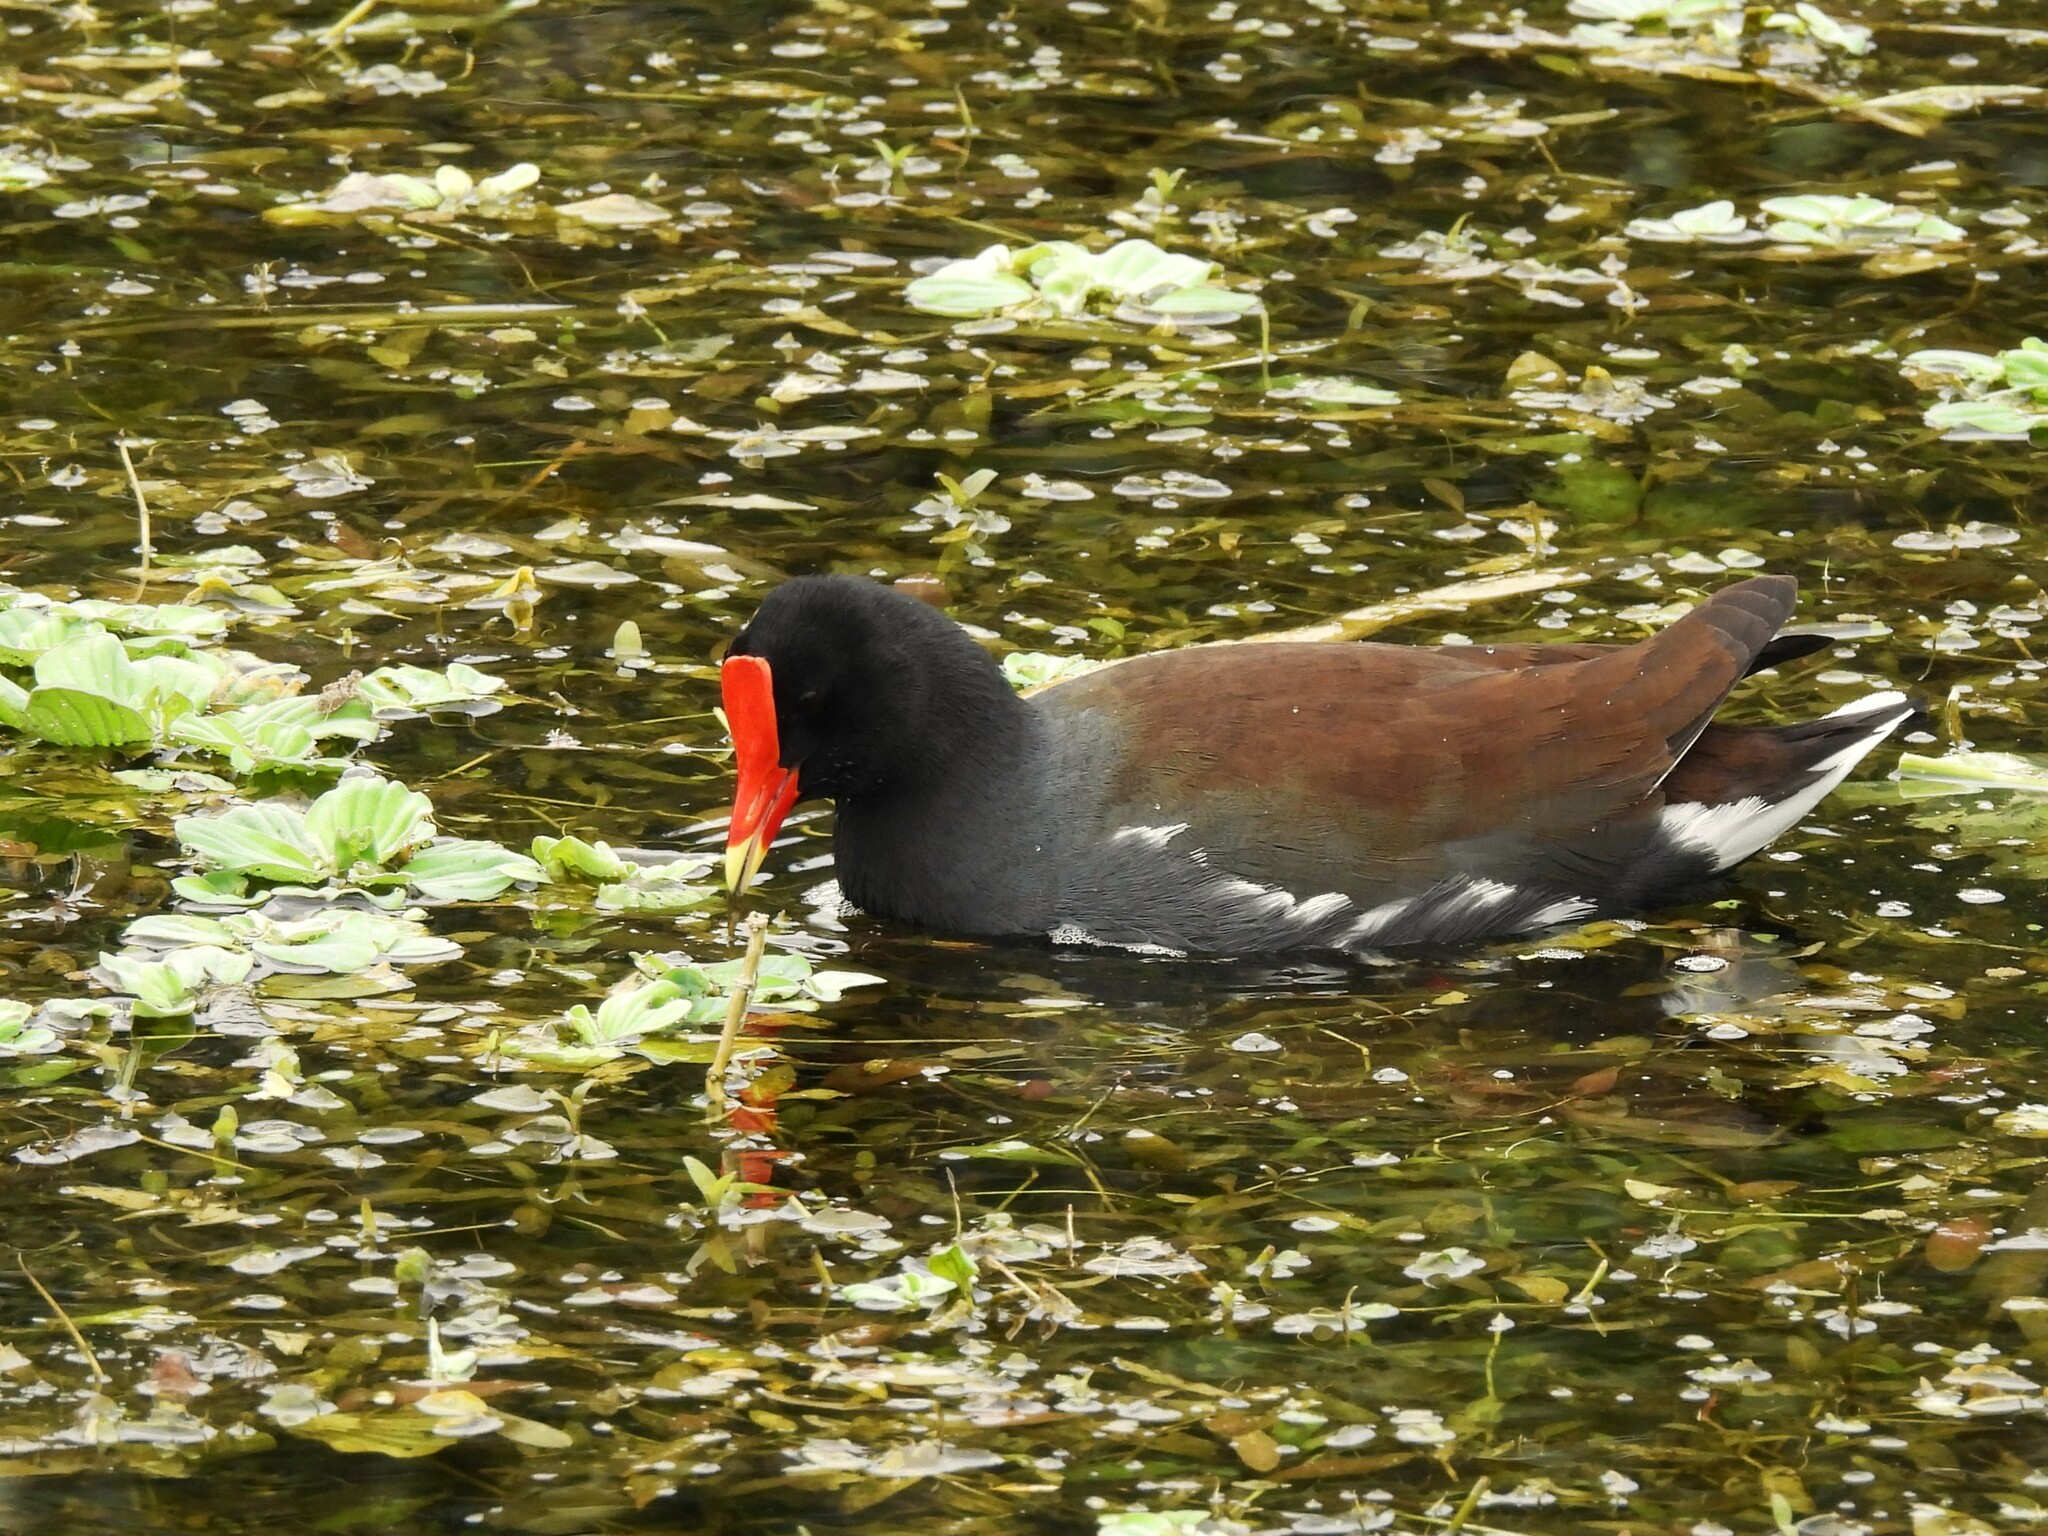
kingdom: Animalia
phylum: Chordata
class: Aves
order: Gruiformes
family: Rallidae
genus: Gallinula
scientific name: Gallinula chloropus
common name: Common moorhen
